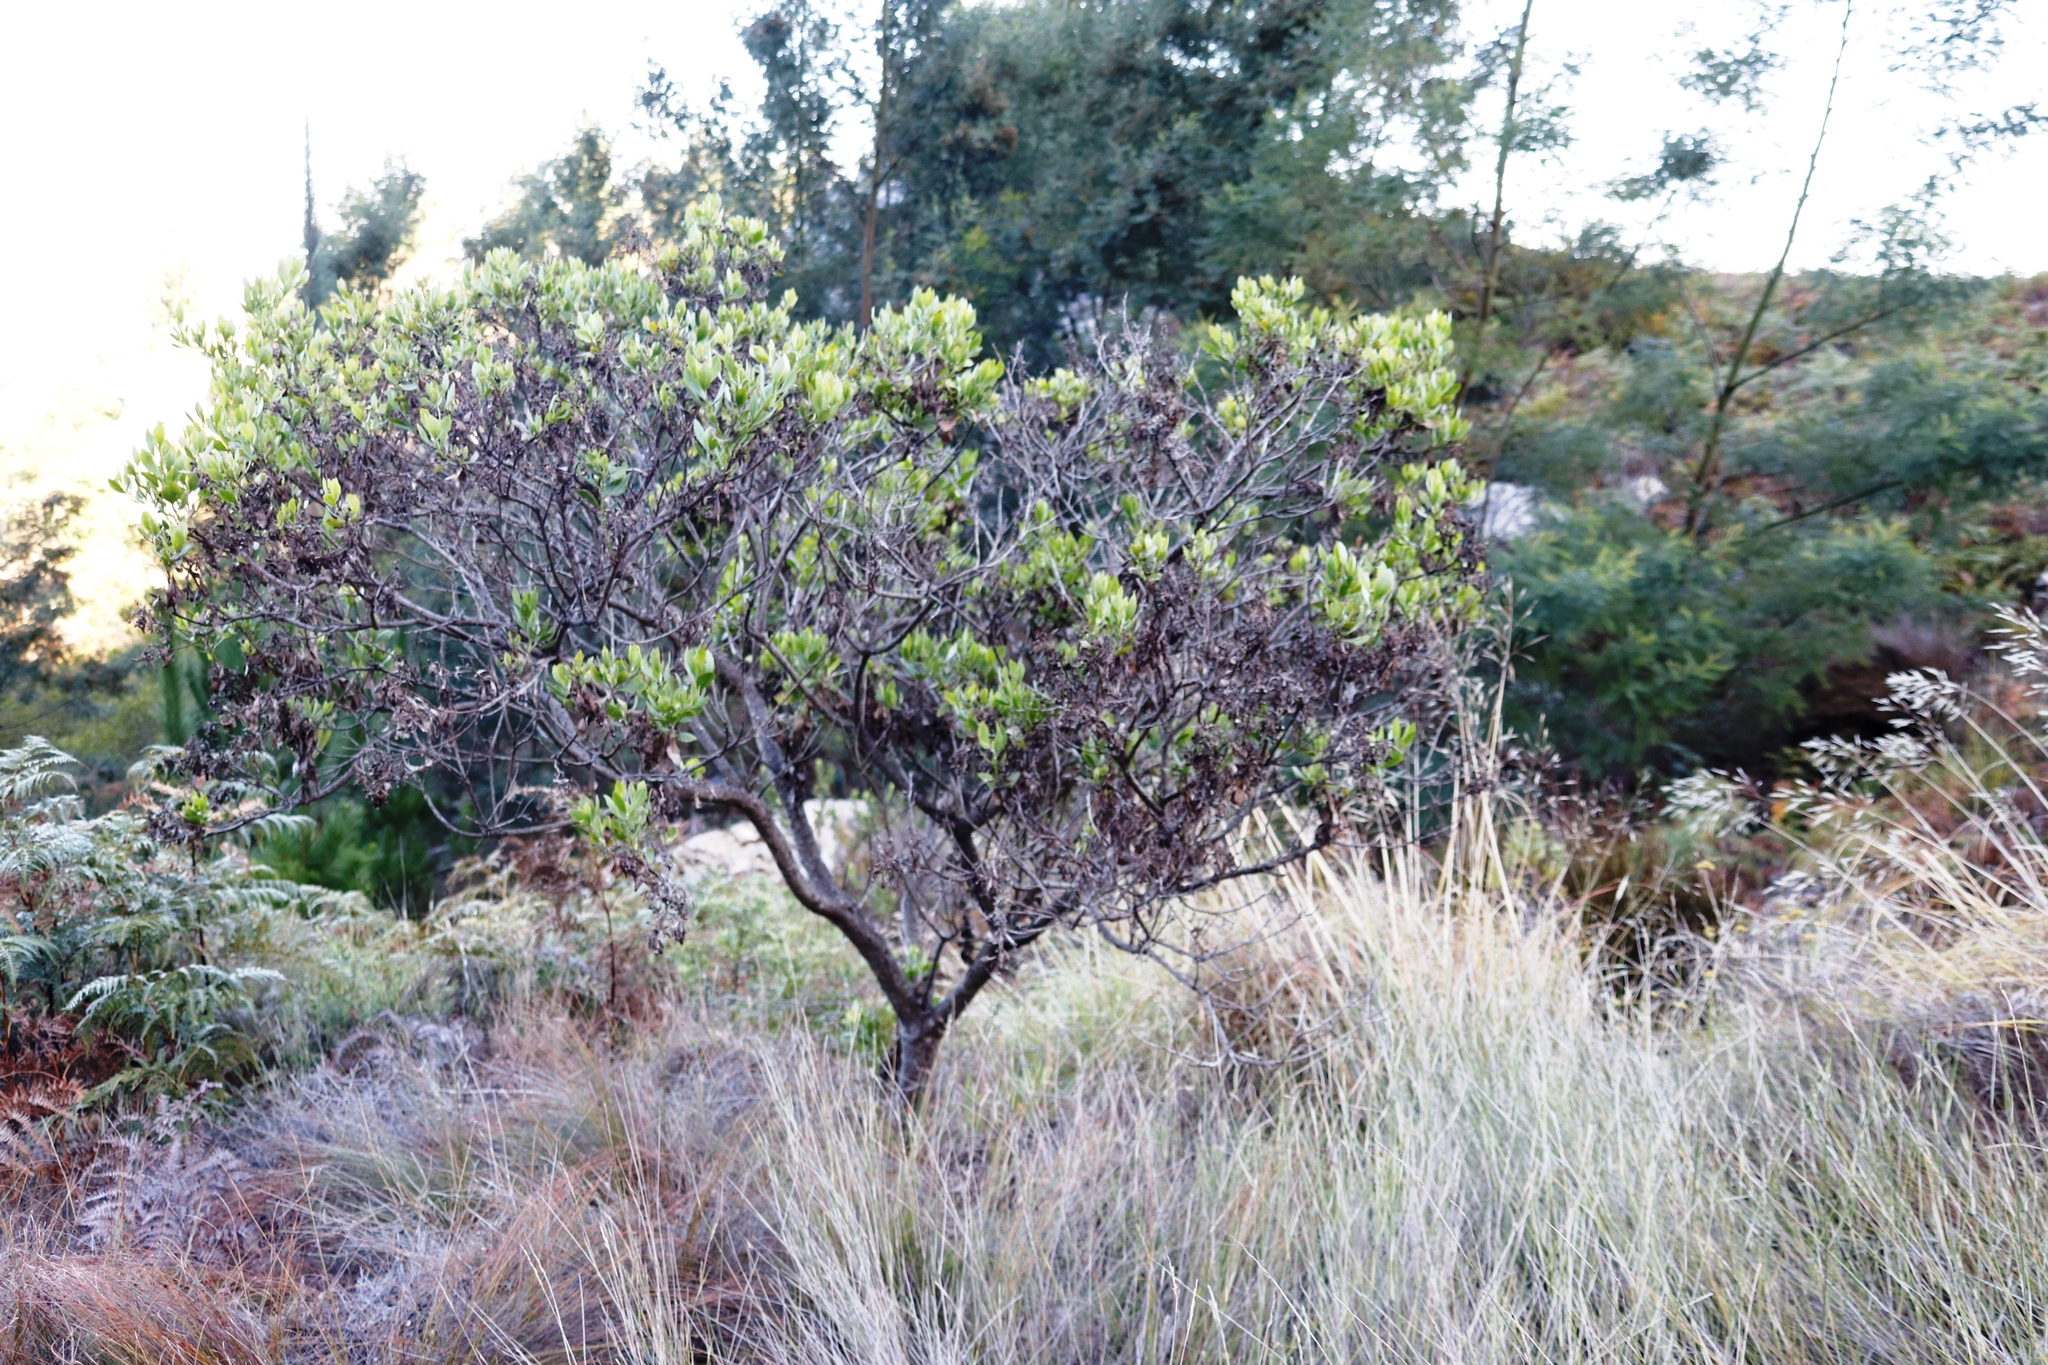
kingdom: Plantae
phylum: Tracheophyta
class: Magnoliopsida
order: Asterales
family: Asteraceae
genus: Osteospermum
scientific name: Osteospermum moniliferum
